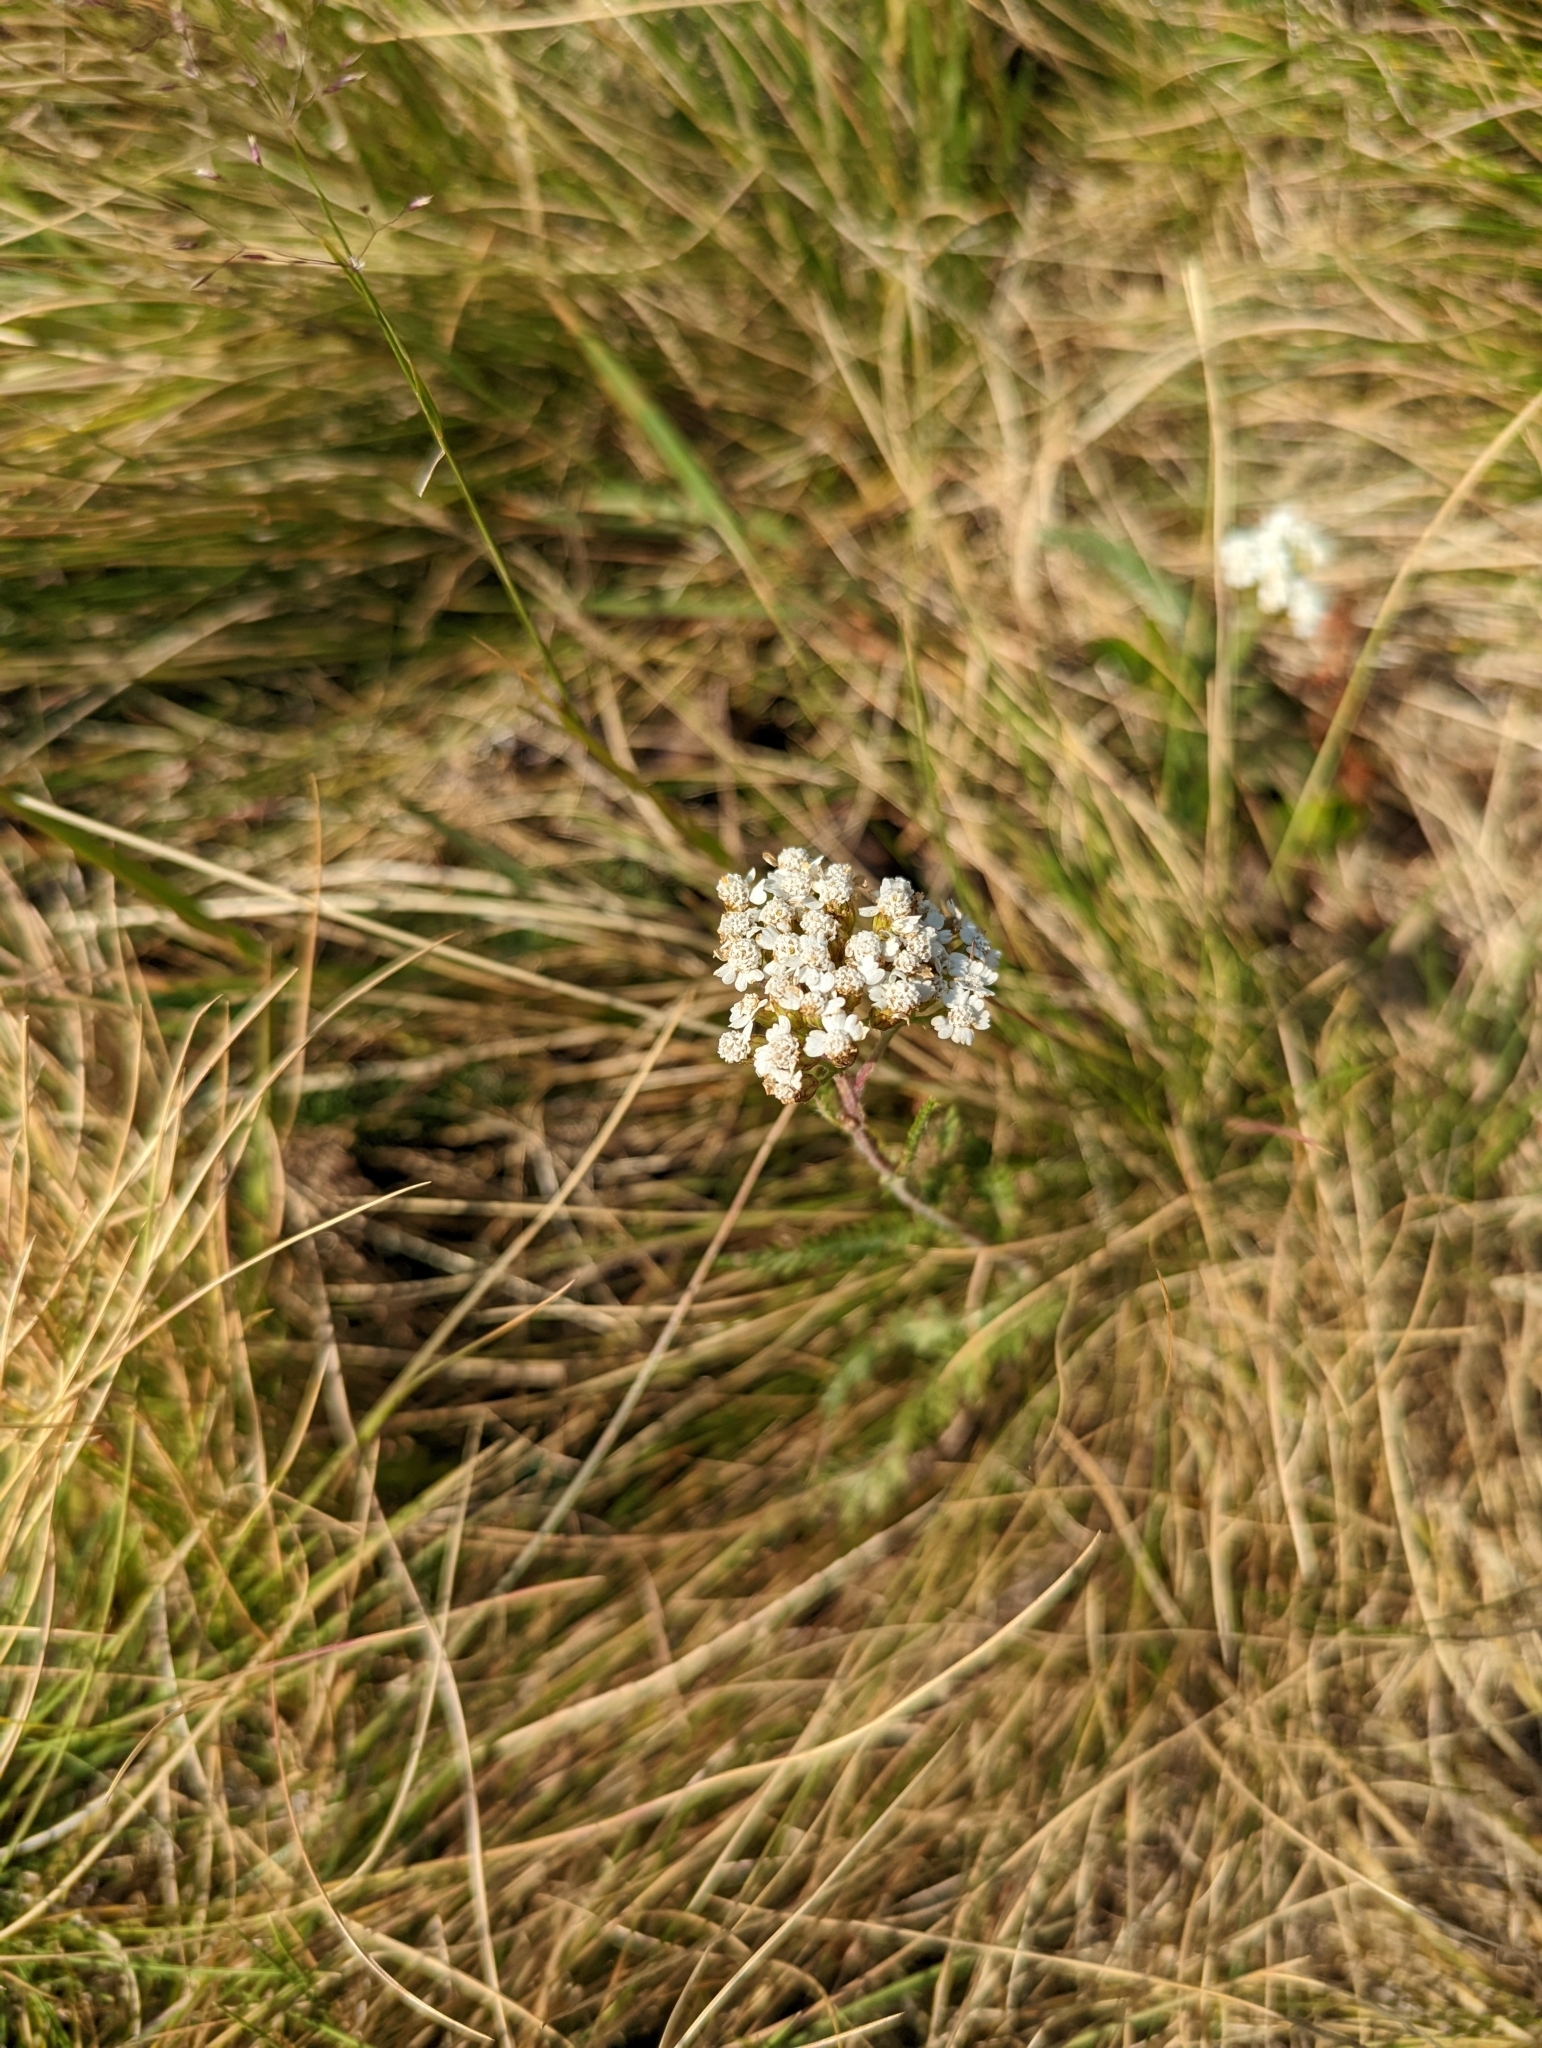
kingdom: Plantae
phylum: Tracheophyta
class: Magnoliopsida
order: Asterales
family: Asteraceae
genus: Achillea
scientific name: Achillea millefolium
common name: Yarrow
